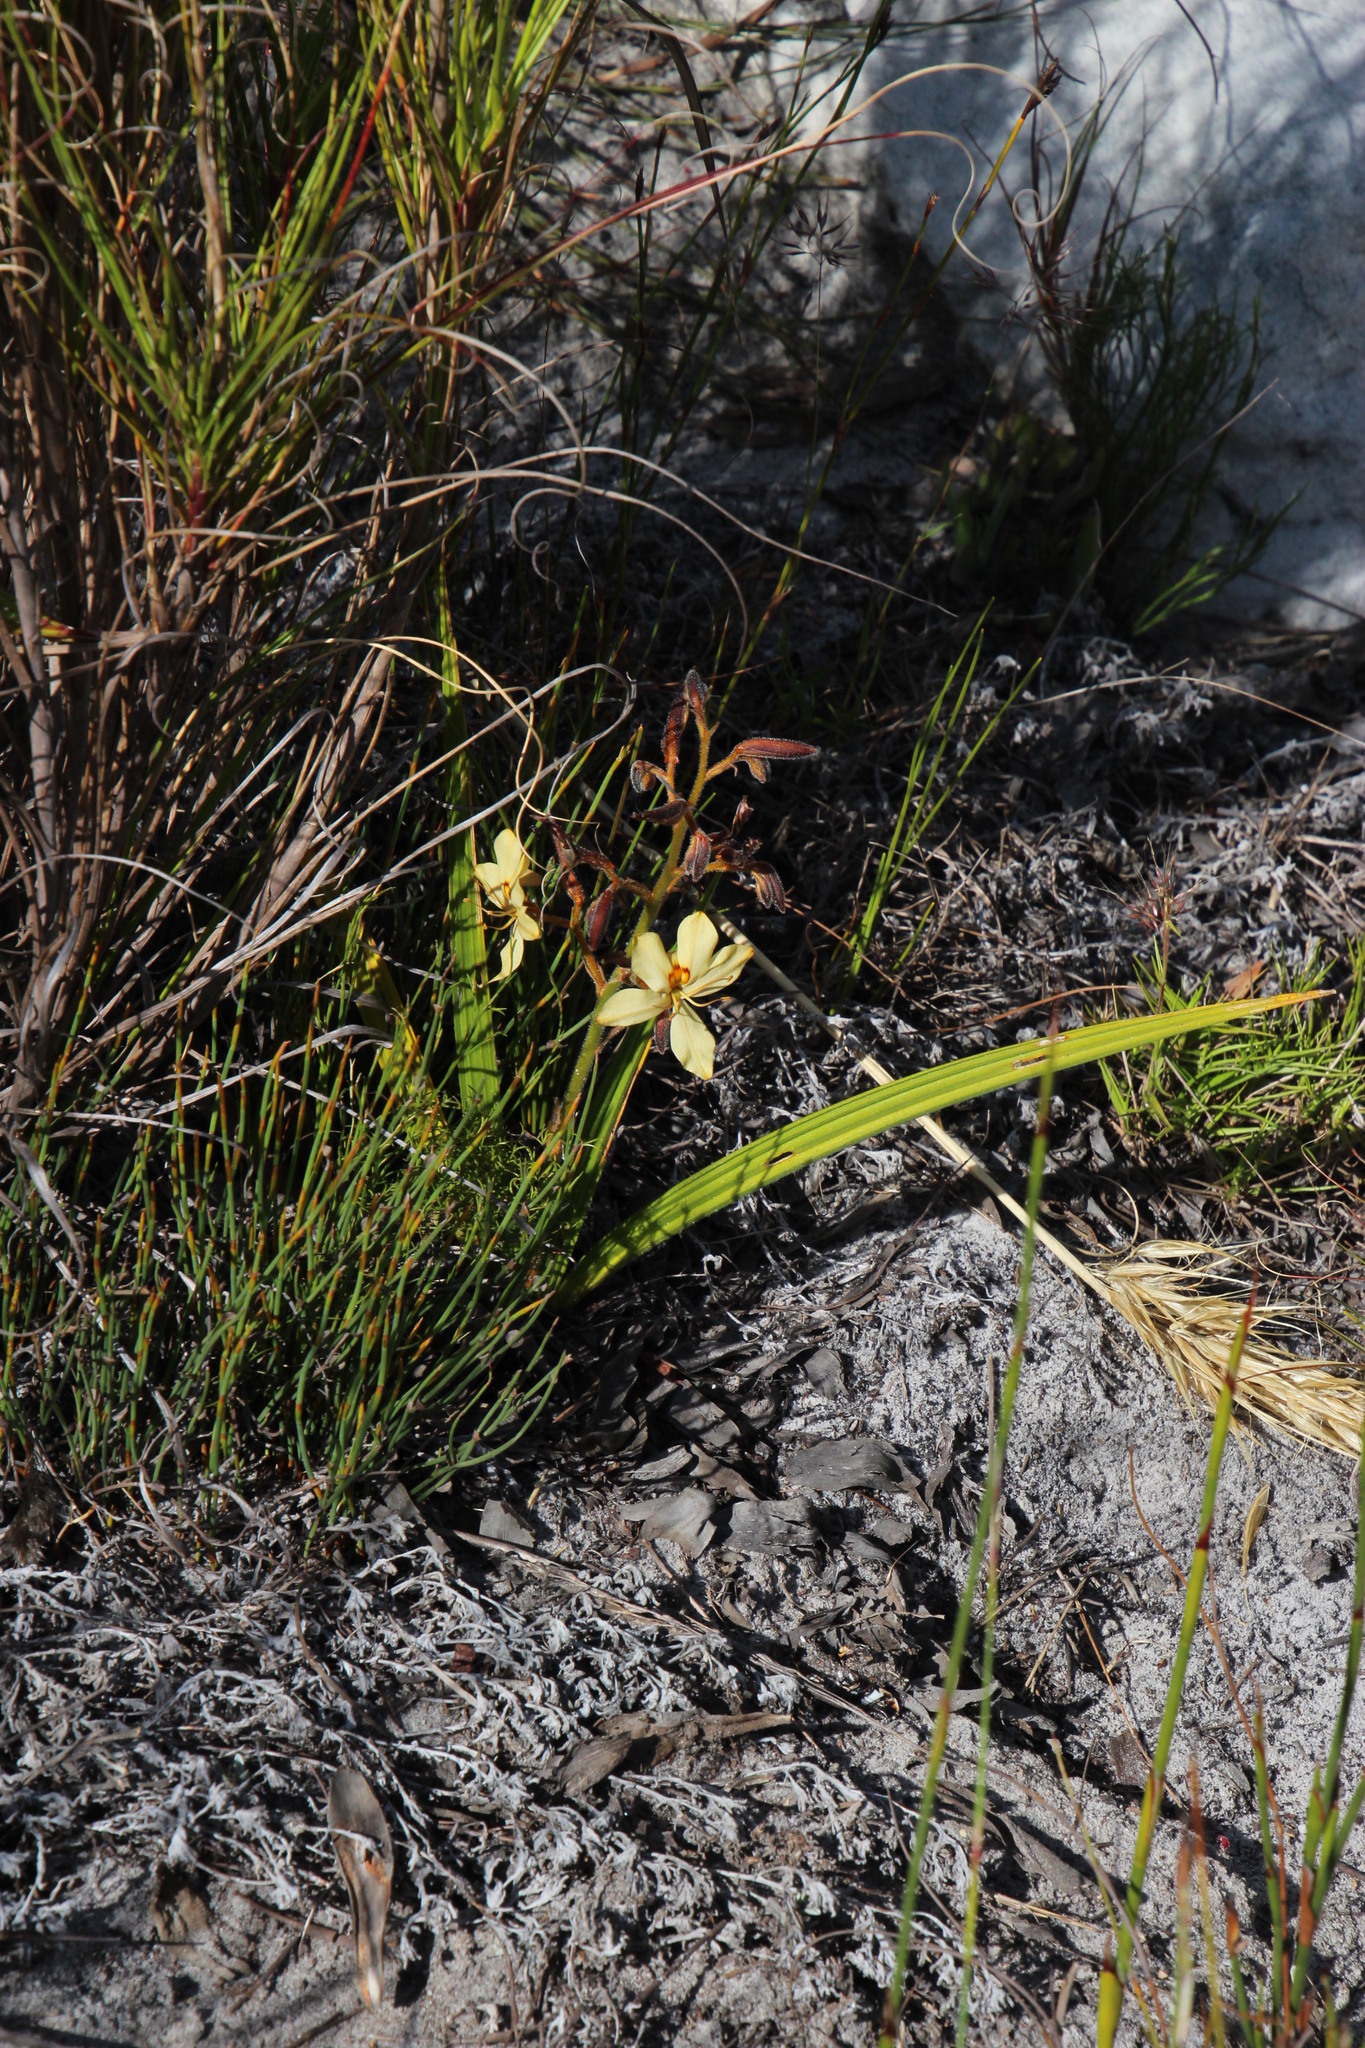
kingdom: Plantae
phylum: Tracheophyta
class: Liliopsida
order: Commelinales
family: Haemodoraceae
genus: Wachendorfia
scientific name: Wachendorfia paniculata
